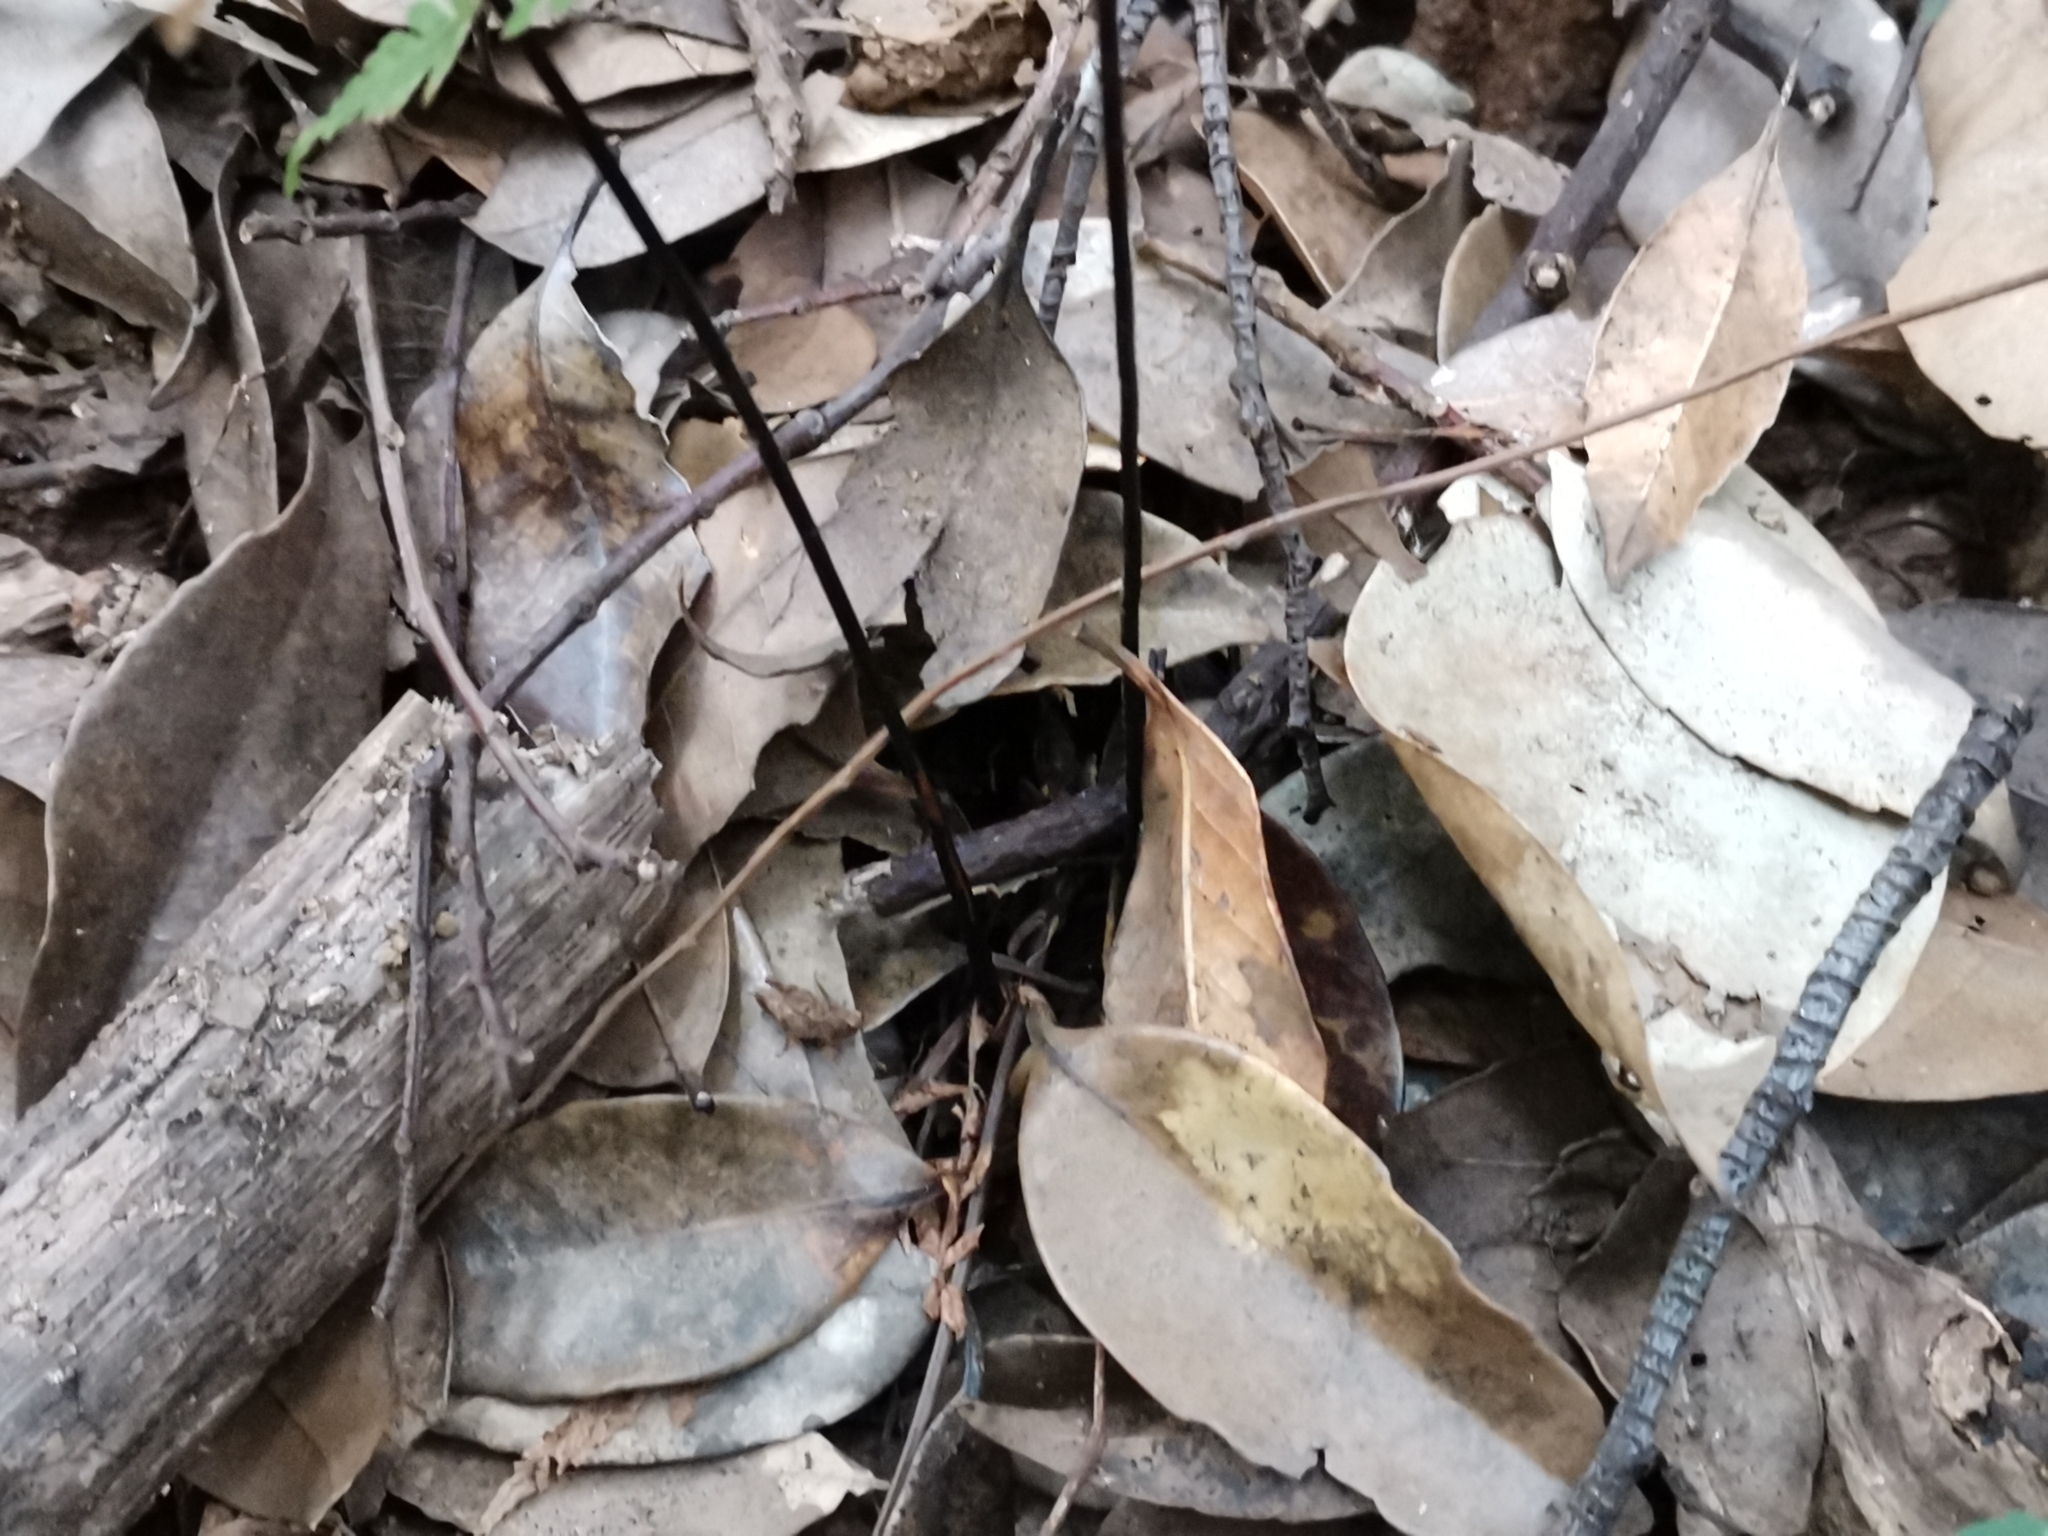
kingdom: Plantae
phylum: Tracheophyta
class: Polypodiopsida
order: Polypodiales
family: Thelypteridaceae
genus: Amauropelta
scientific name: Amauropelta glanduligera
